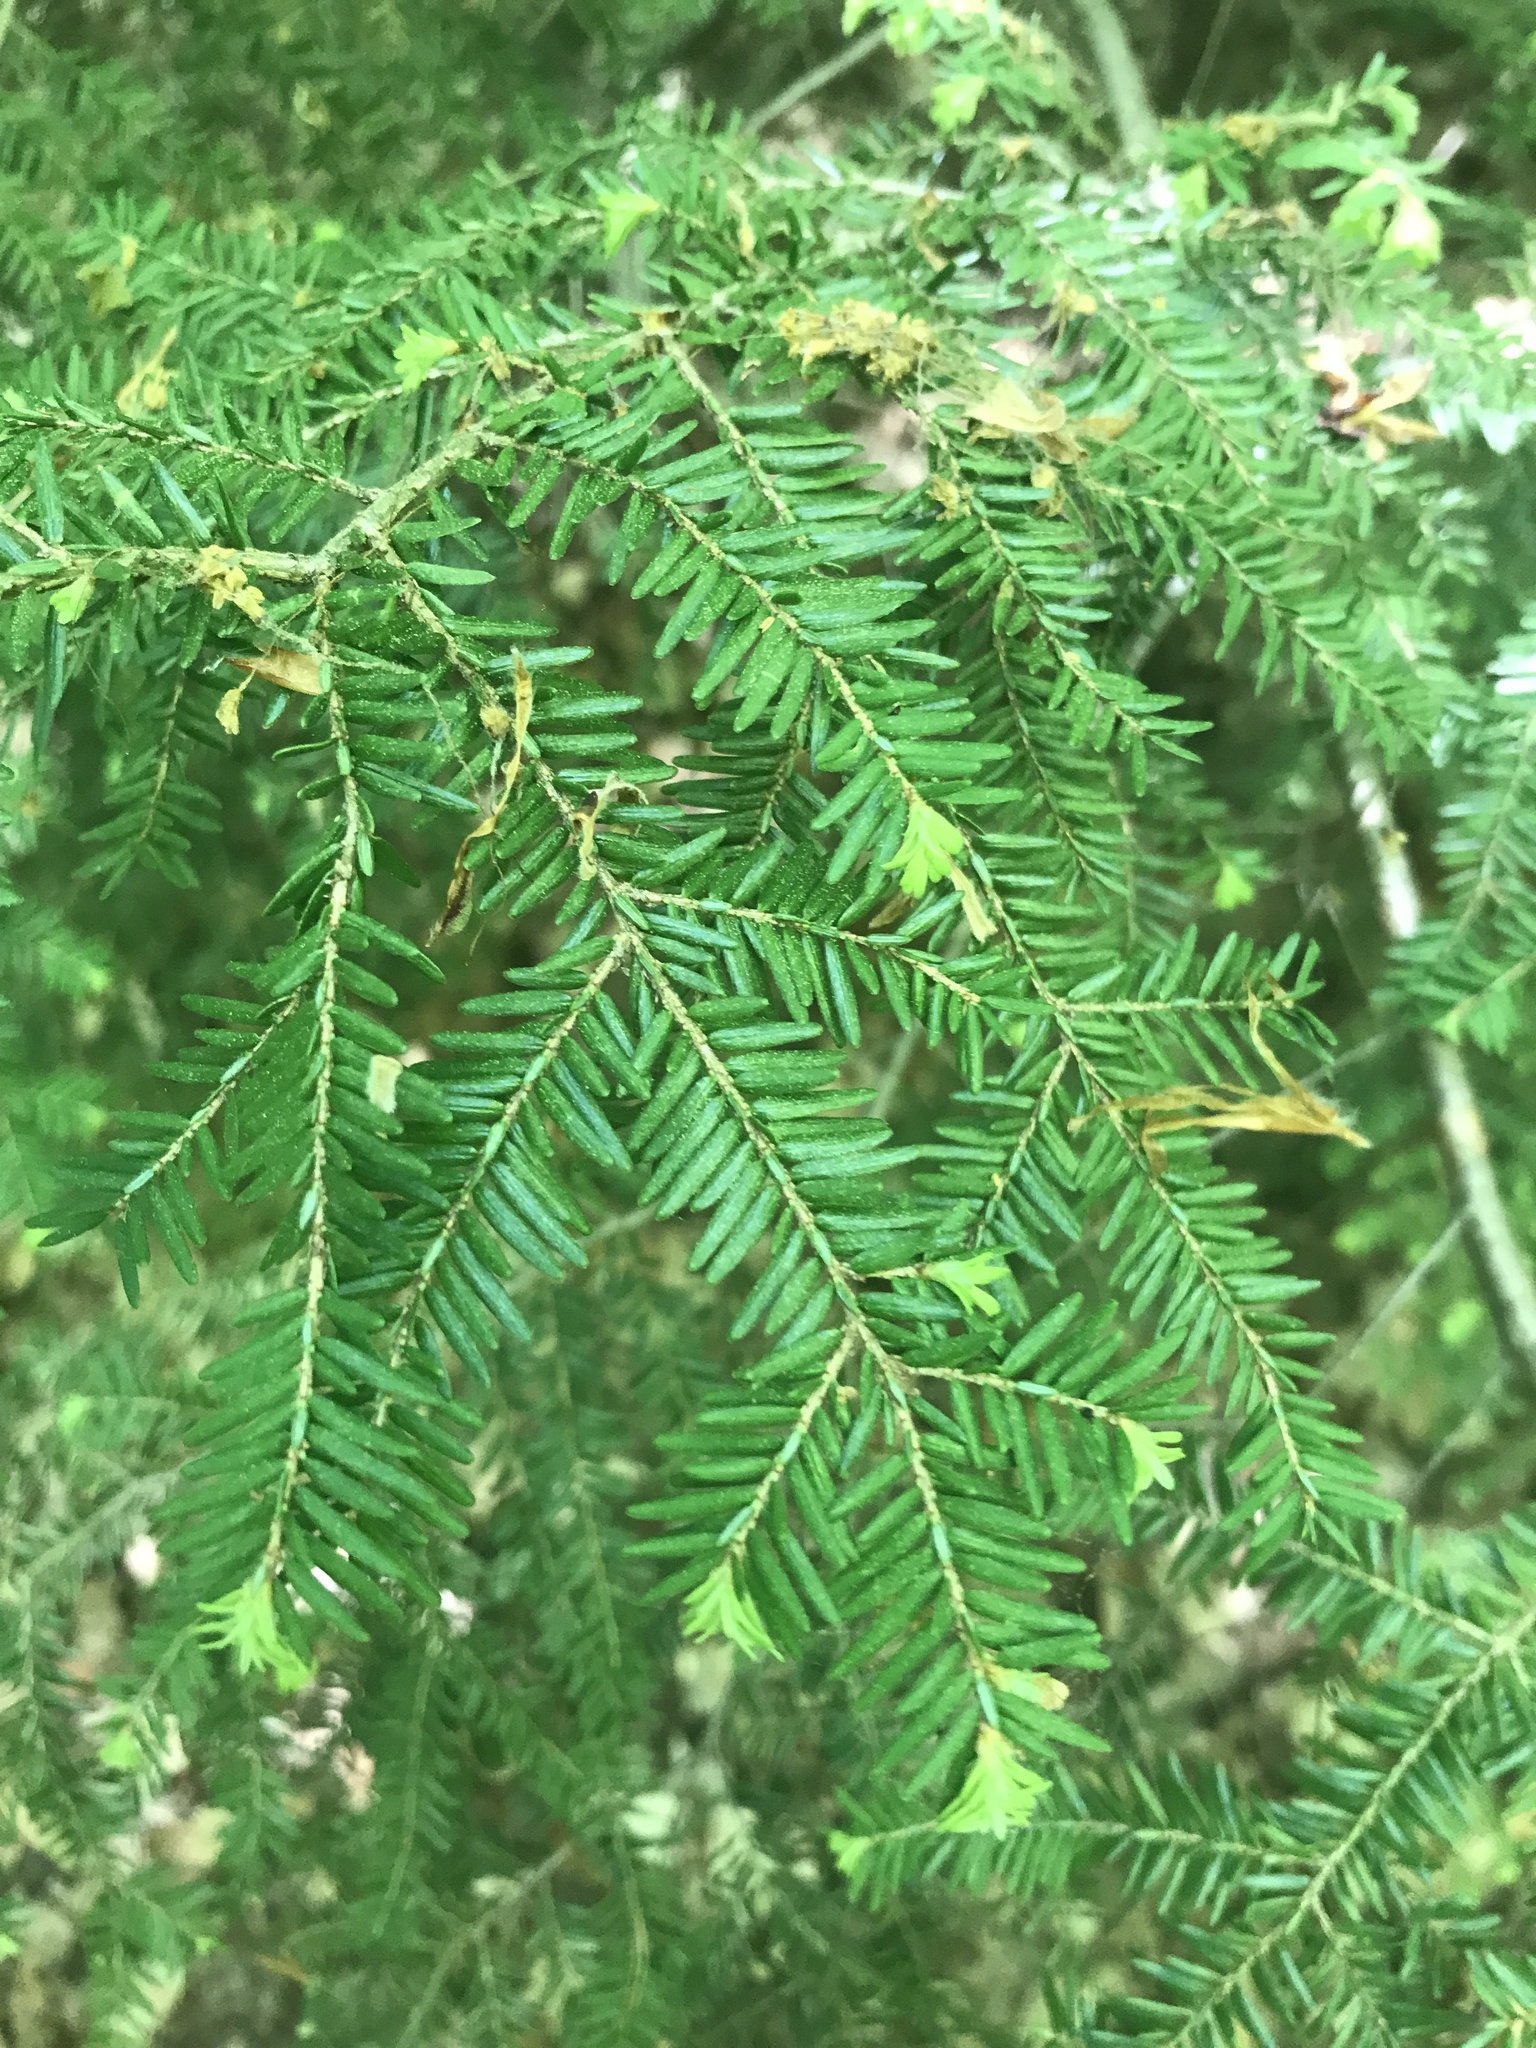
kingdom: Plantae
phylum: Tracheophyta
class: Pinopsida
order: Pinales
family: Pinaceae
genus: Tsuga
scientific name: Tsuga canadensis
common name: Eastern hemlock
